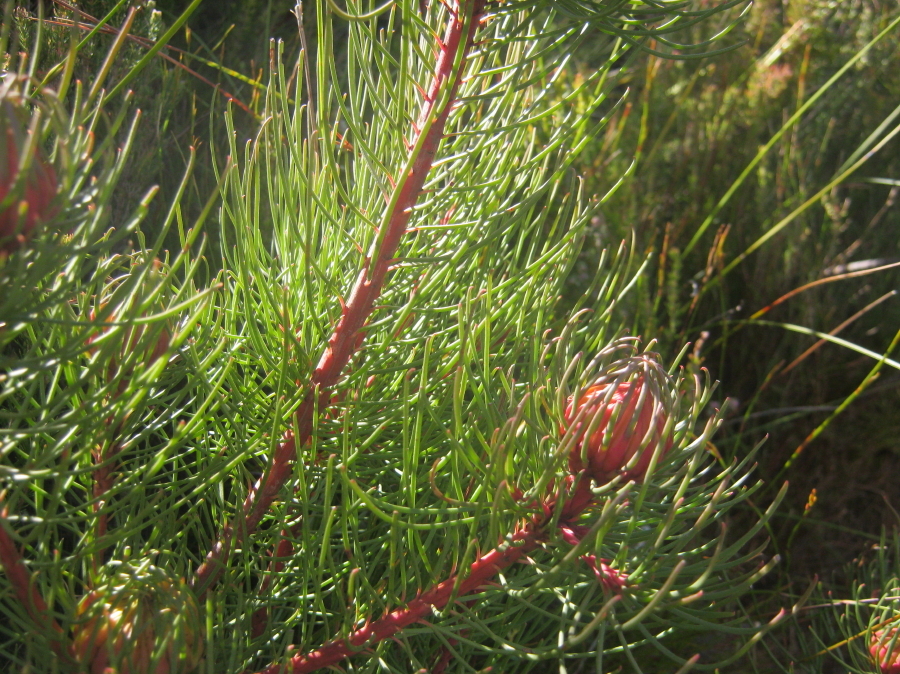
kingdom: Plantae
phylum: Tracheophyta
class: Magnoliopsida
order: Proteales
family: Proteaceae
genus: Aulax
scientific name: Aulax cancellata
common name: Channel-leaf featherbush
